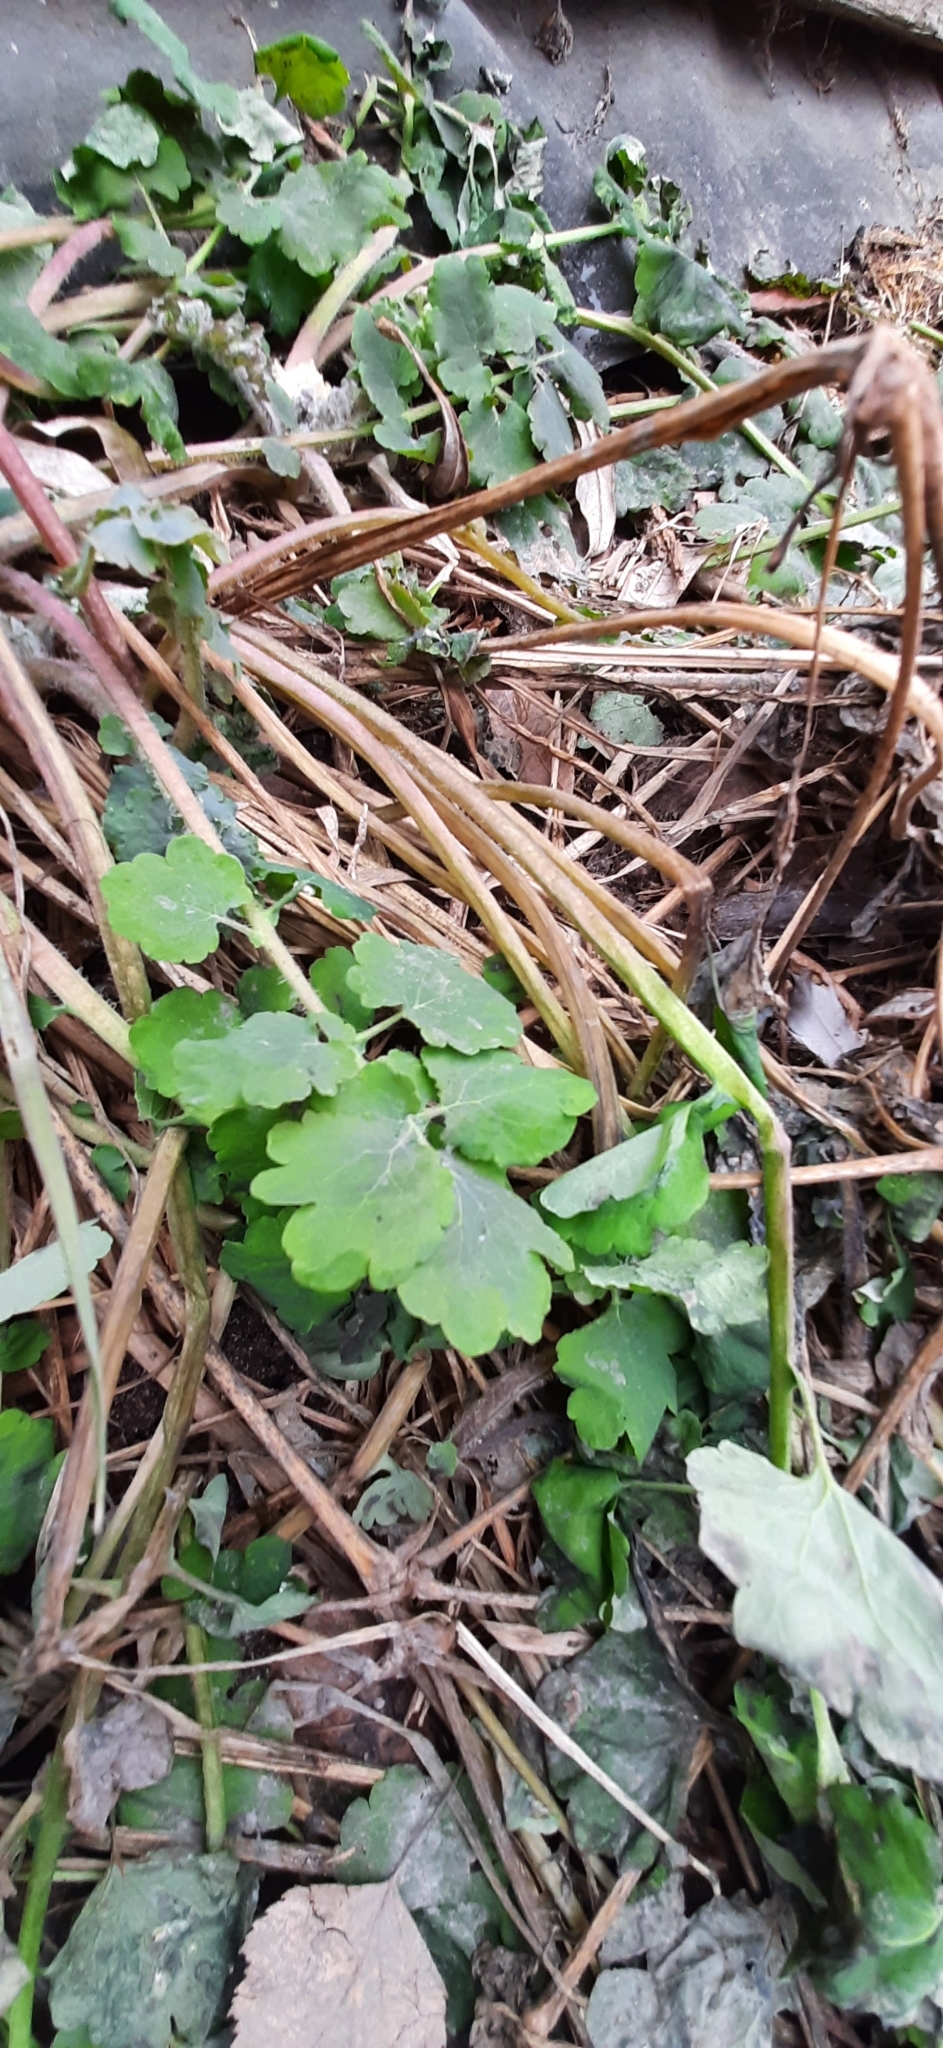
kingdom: Plantae
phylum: Tracheophyta
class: Magnoliopsida
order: Ranunculales
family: Papaveraceae
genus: Chelidonium
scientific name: Chelidonium majus
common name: Greater celandine
